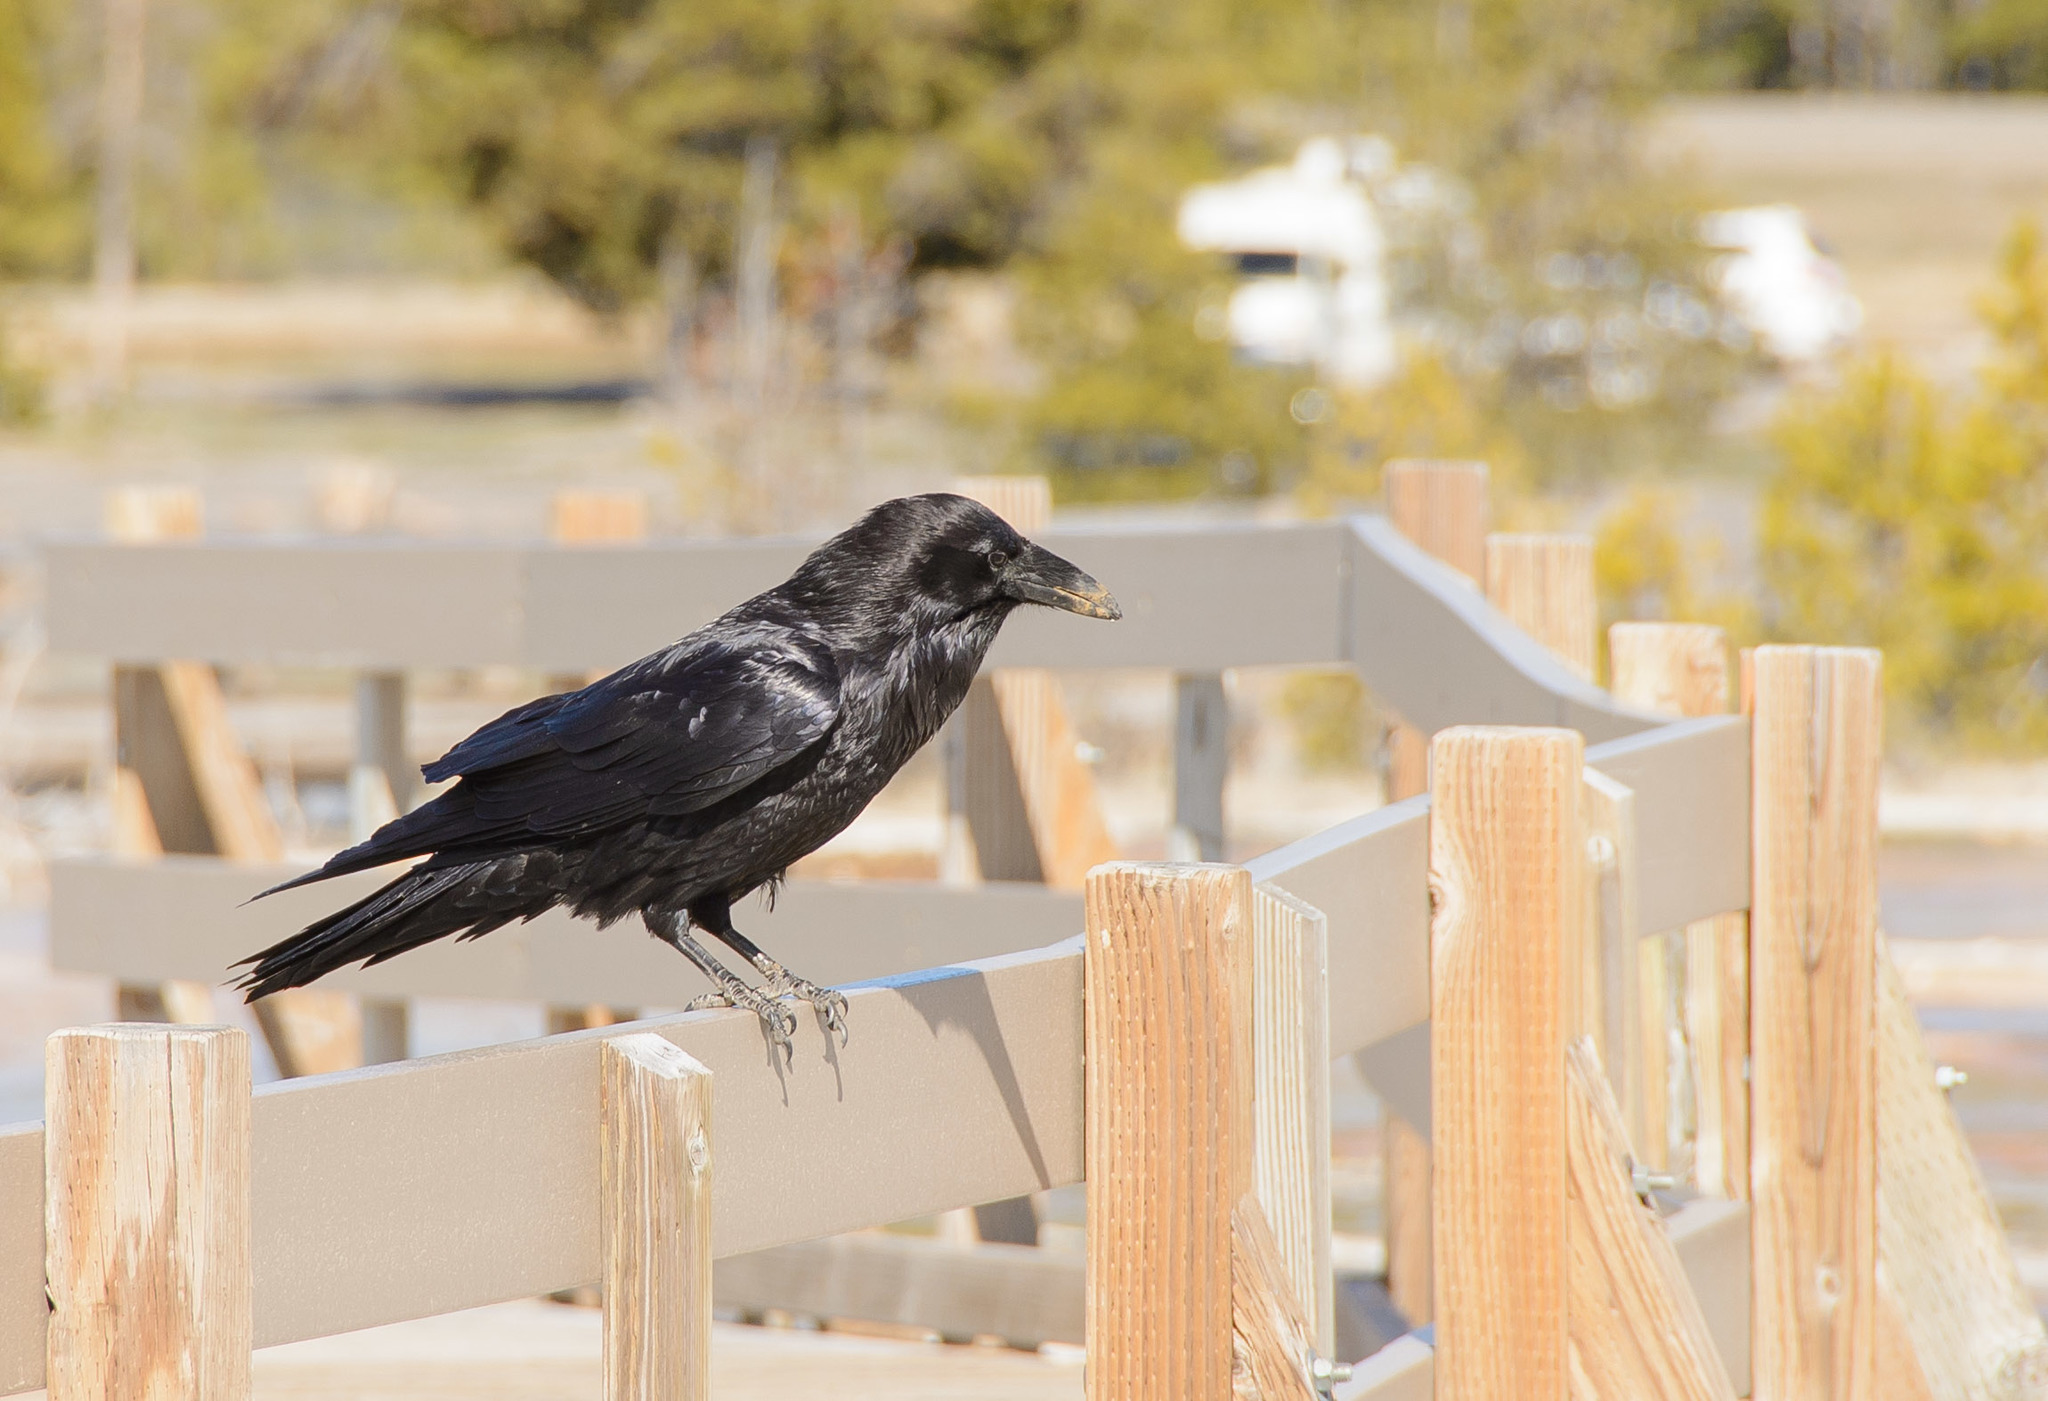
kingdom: Animalia
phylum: Chordata
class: Aves
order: Passeriformes
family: Corvidae
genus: Corvus
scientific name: Corvus corax
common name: Common raven
